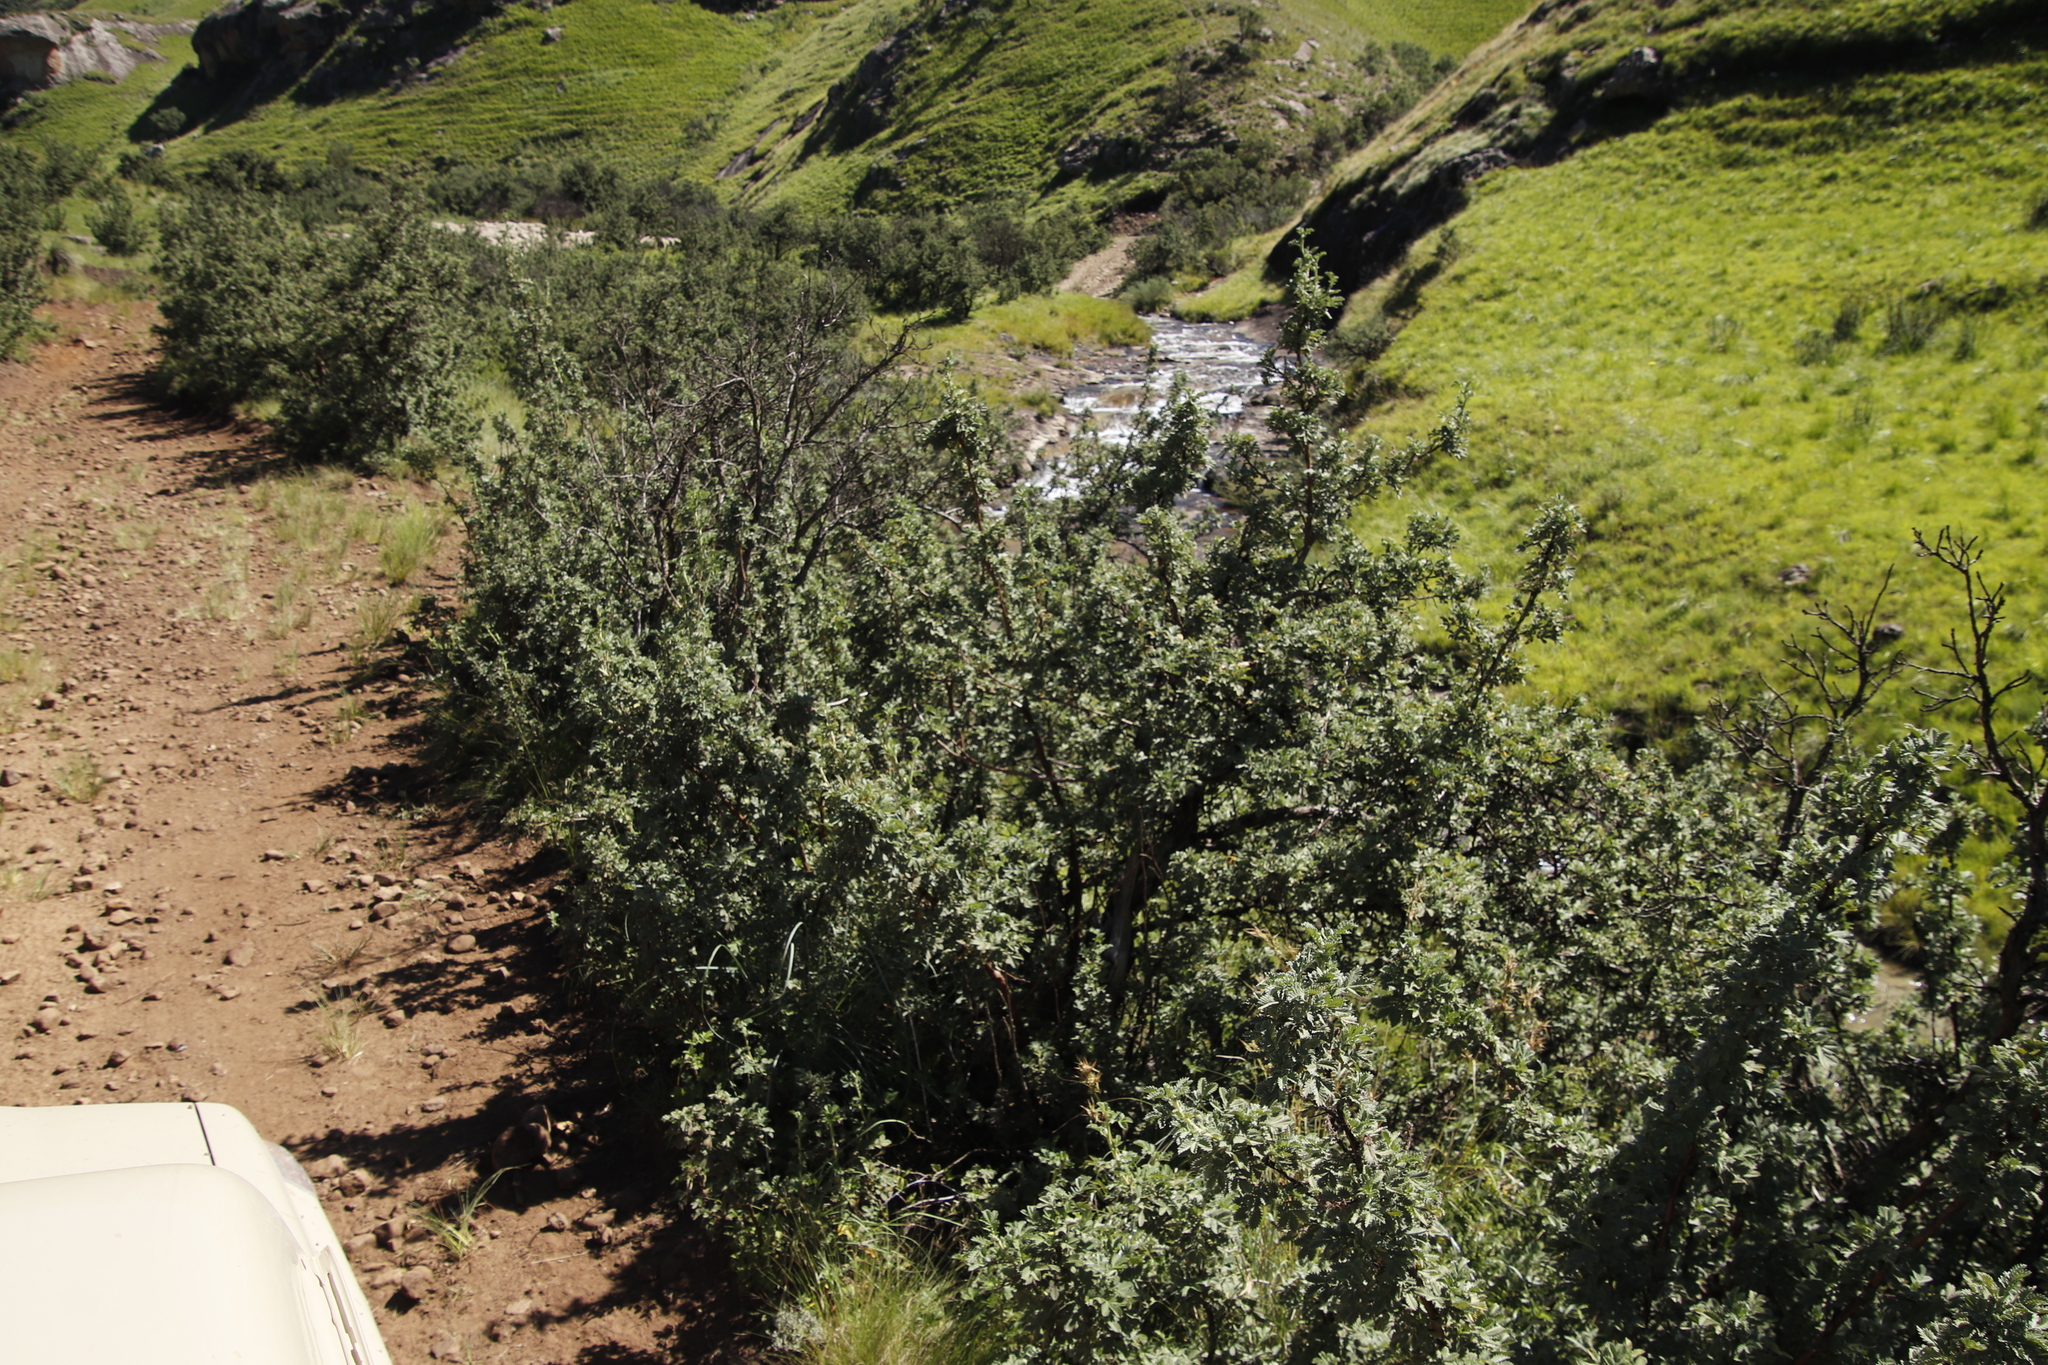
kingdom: Plantae
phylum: Tracheophyta
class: Magnoliopsida
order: Rosales
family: Rosaceae
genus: Leucosidea
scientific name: Leucosidea sericea
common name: Oldwood
